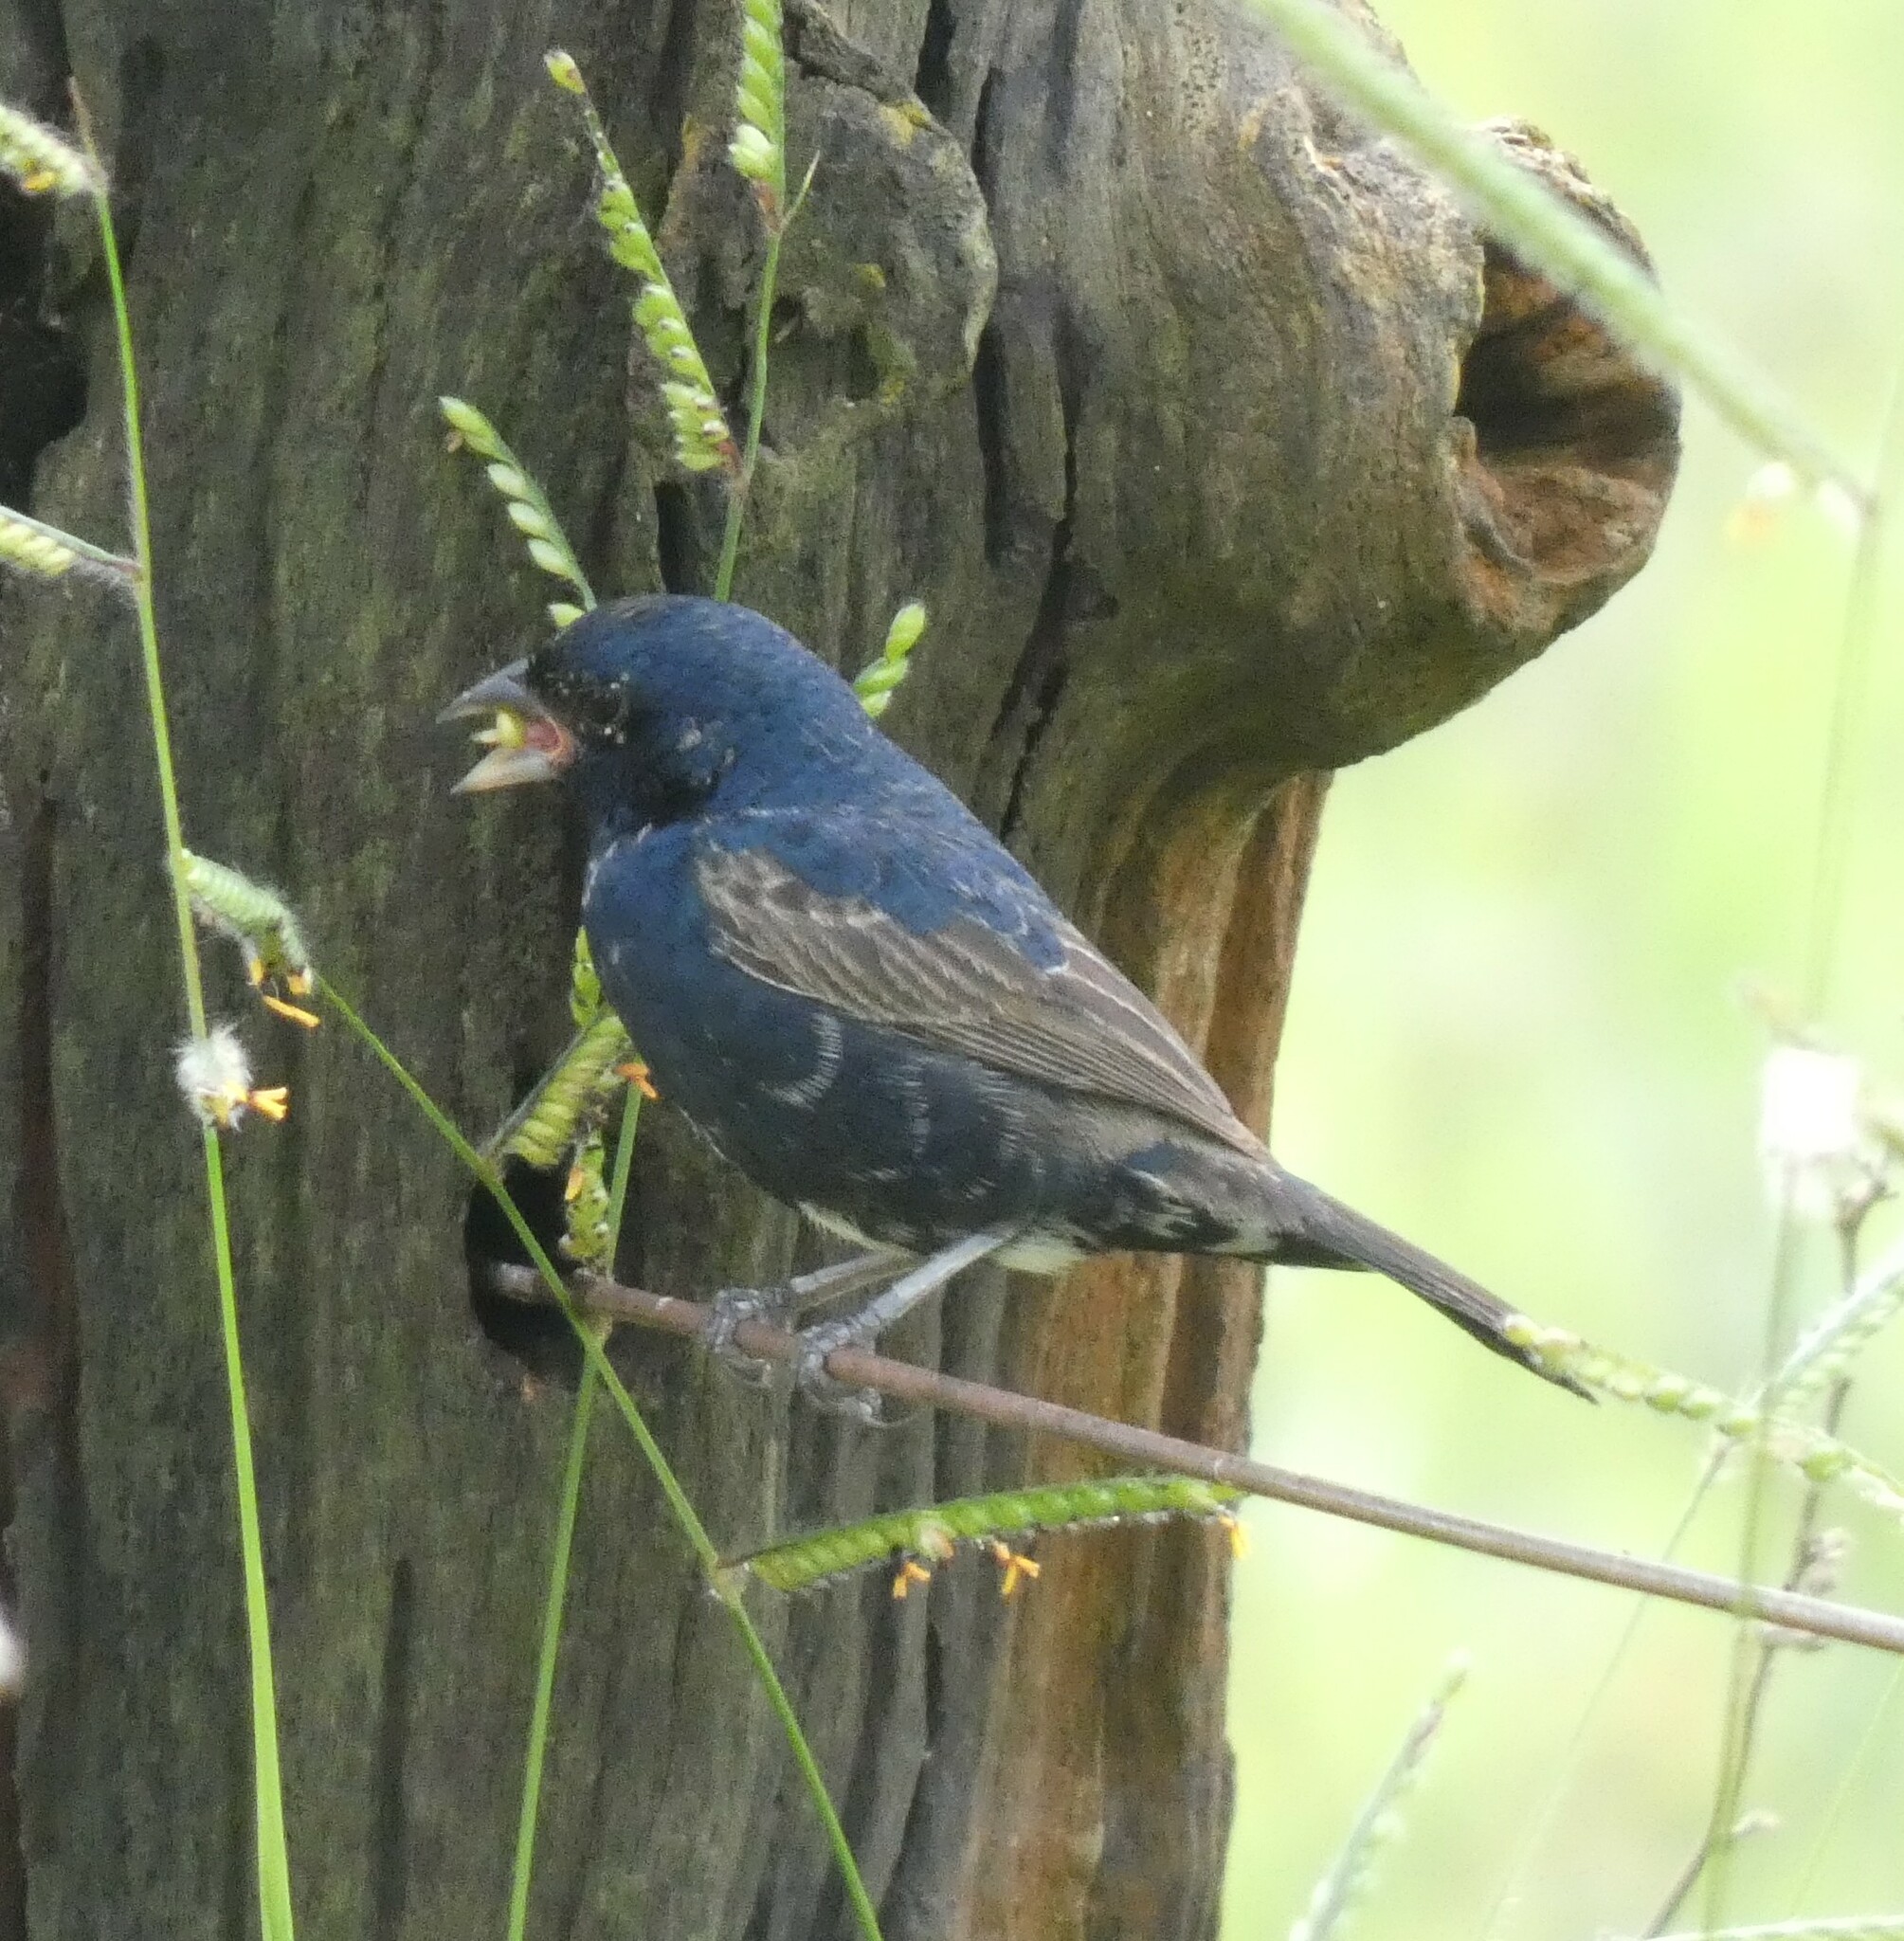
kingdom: Animalia
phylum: Chordata
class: Aves
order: Passeriformes
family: Thraupidae
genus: Volatinia
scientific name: Volatinia jacarina
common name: Blue-black grassquit
